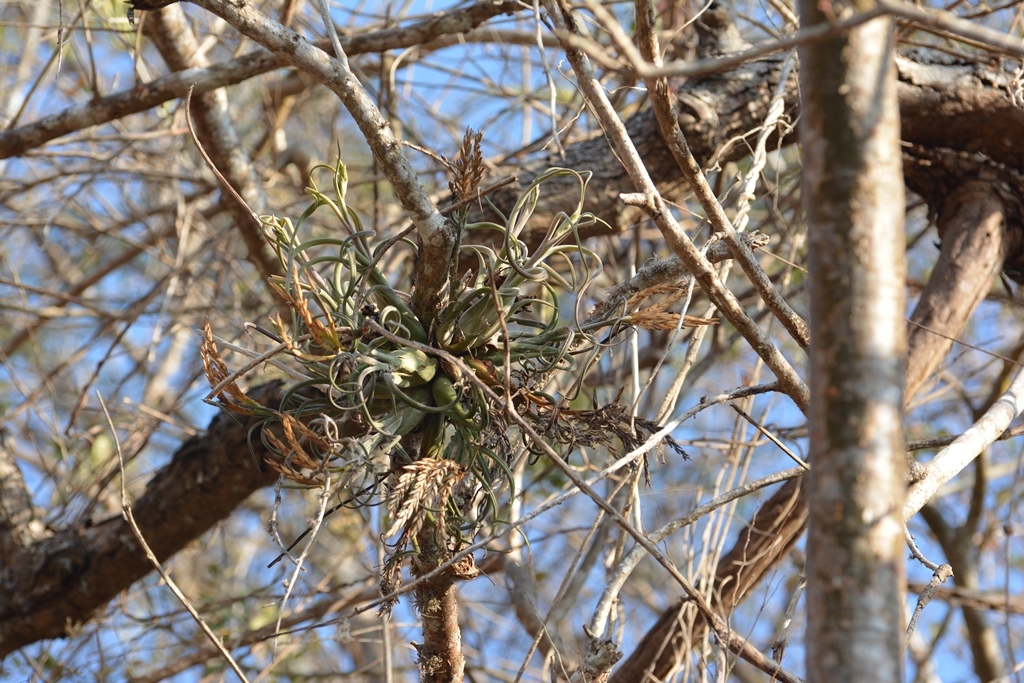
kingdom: Plantae
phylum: Tracheophyta
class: Liliopsida
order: Poales
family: Bromeliaceae
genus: Tillandsia
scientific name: Tillandsia caput-medusae
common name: Octopus plant
